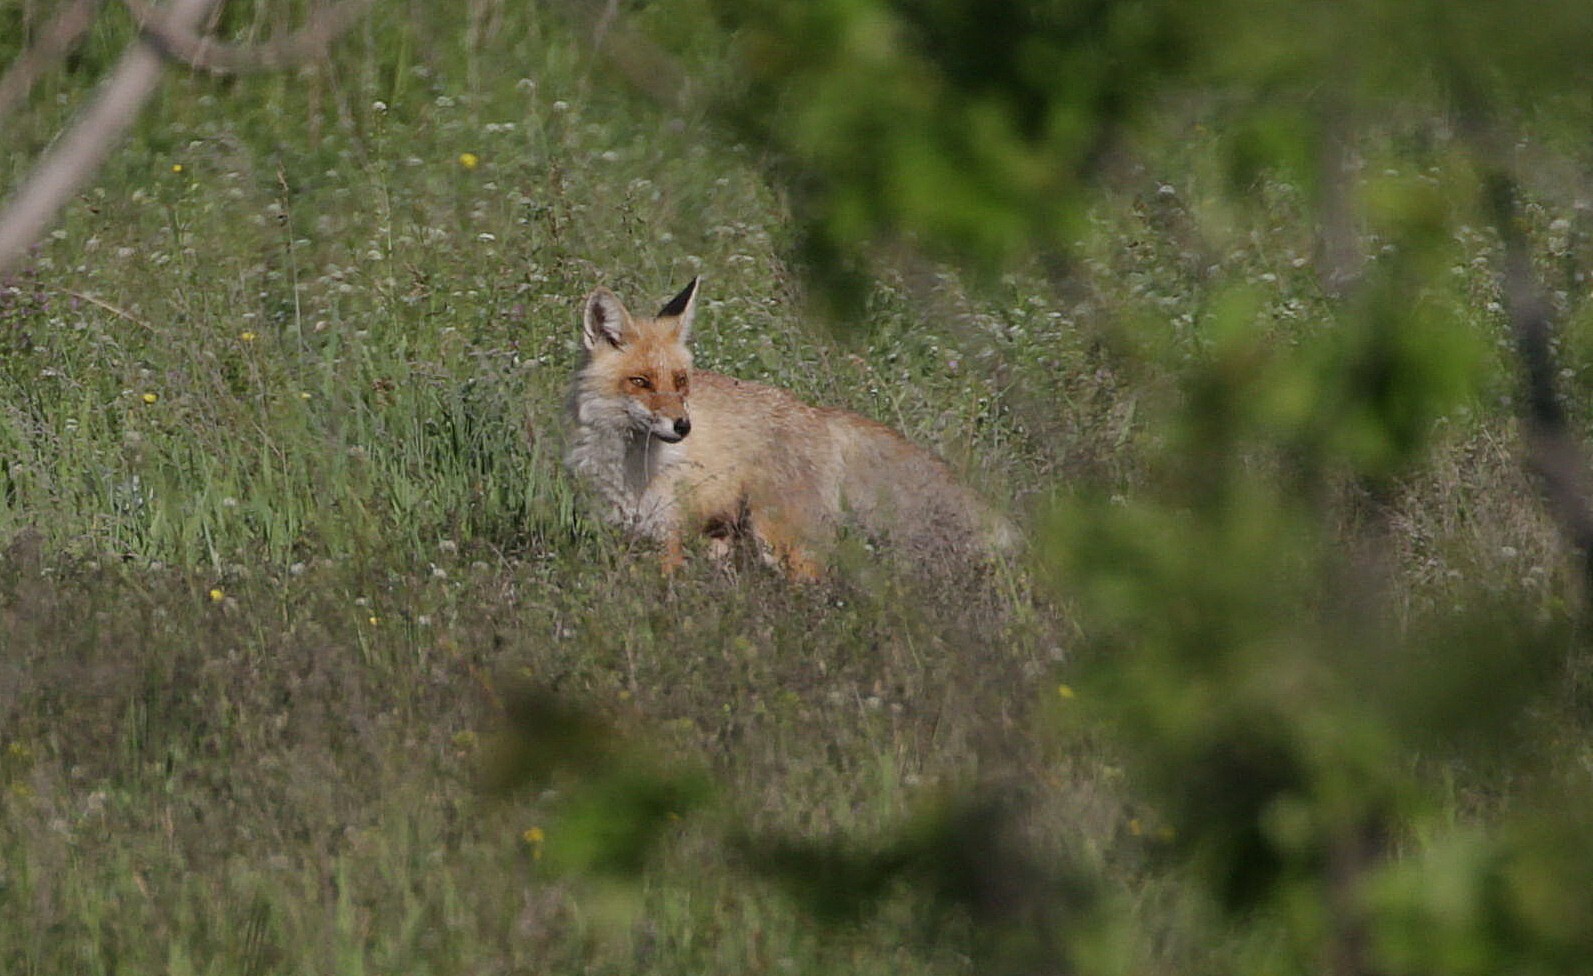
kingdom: Animalia
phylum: Chordata
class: Mammalia
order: Carnivora
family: Canidae
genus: Vulpes
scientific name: Vulpes vulpes
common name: Red fox
